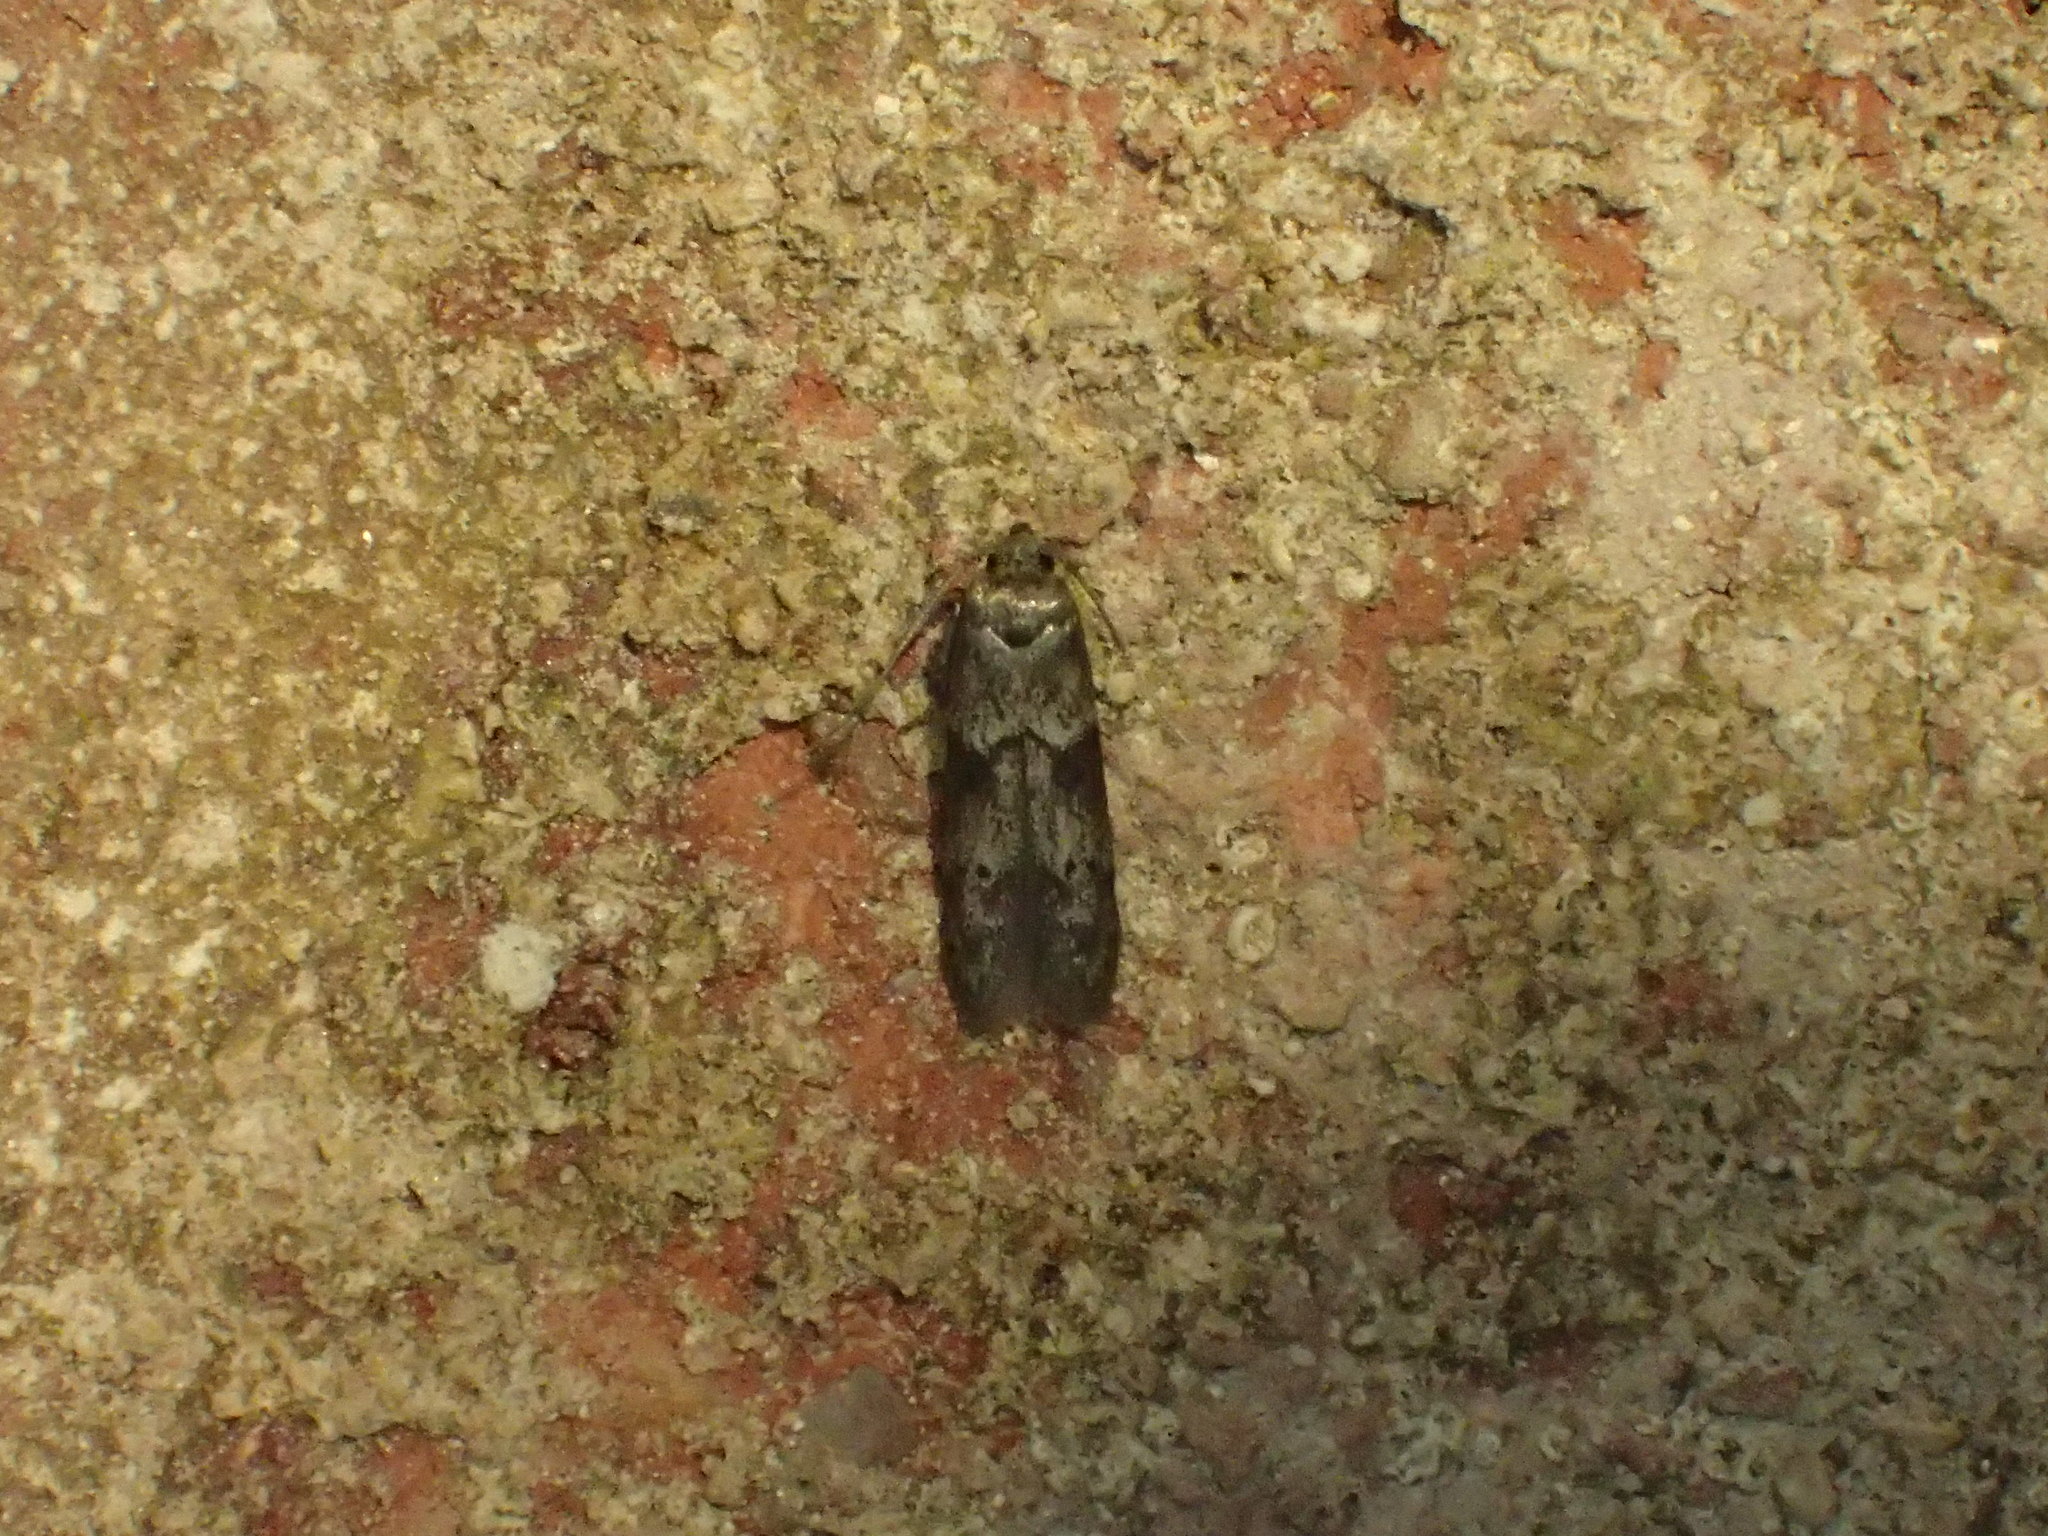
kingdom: Animalia
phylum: Arthropoda
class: Insecta
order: Lepidoptera
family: Blastobasidae
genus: Blastobasis
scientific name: Blastobasis glandulella
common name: Acorn moth
